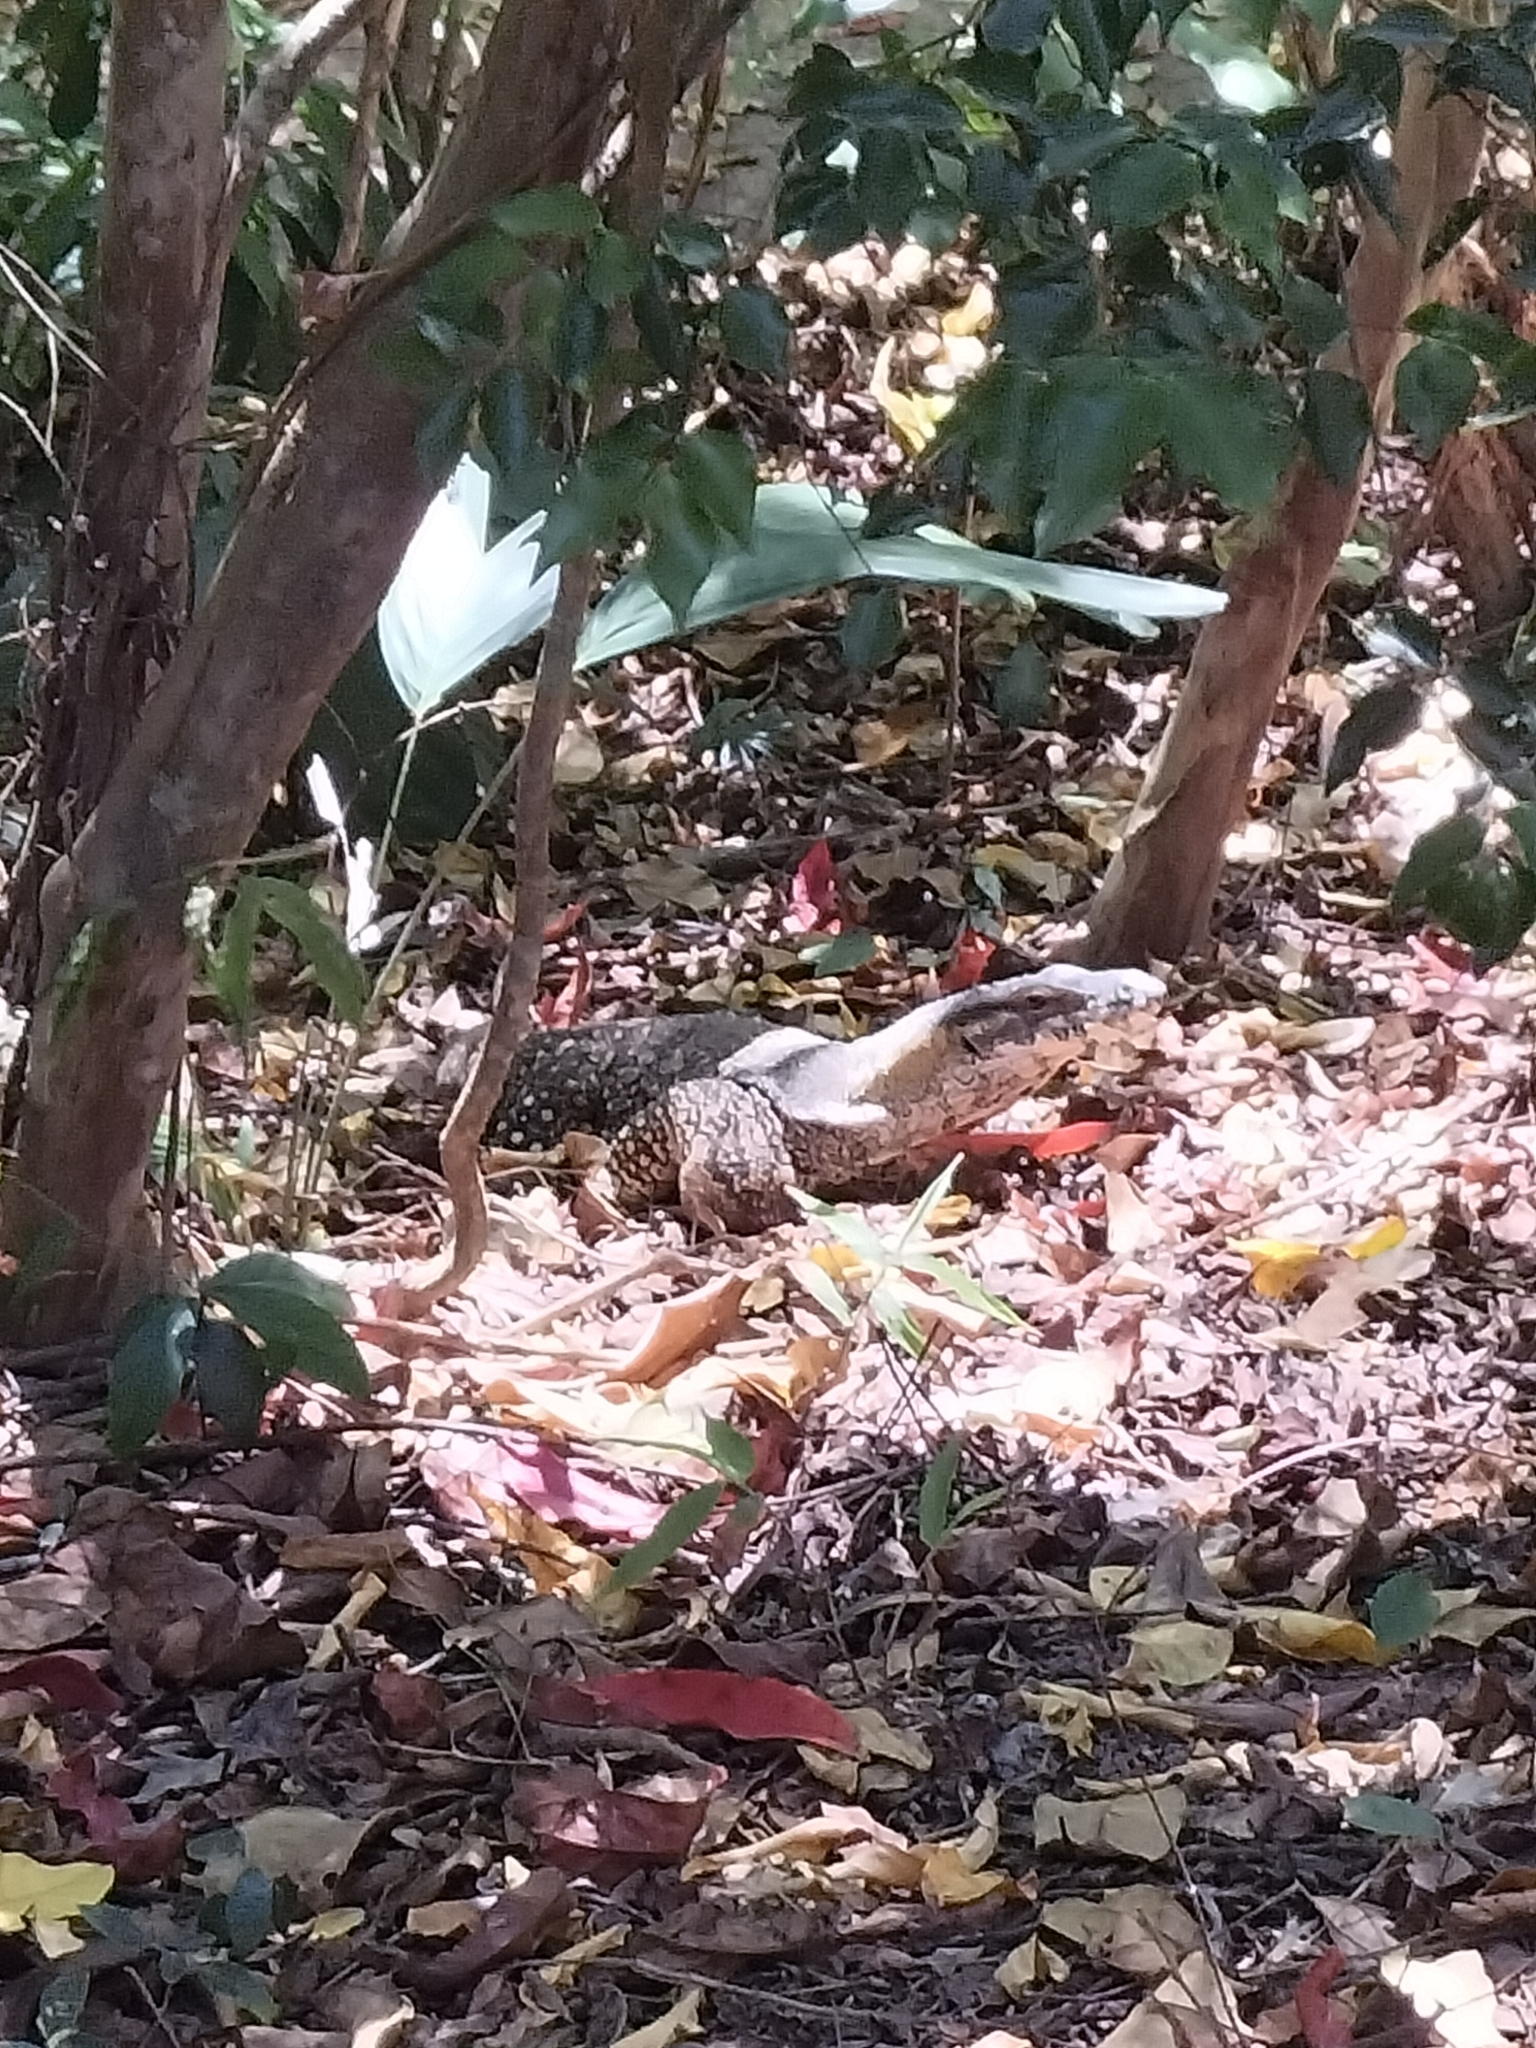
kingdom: Animalia
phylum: Chordata
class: Squamata
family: Varanidae
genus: Varanus
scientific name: Varanus varius
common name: Lace monitor
